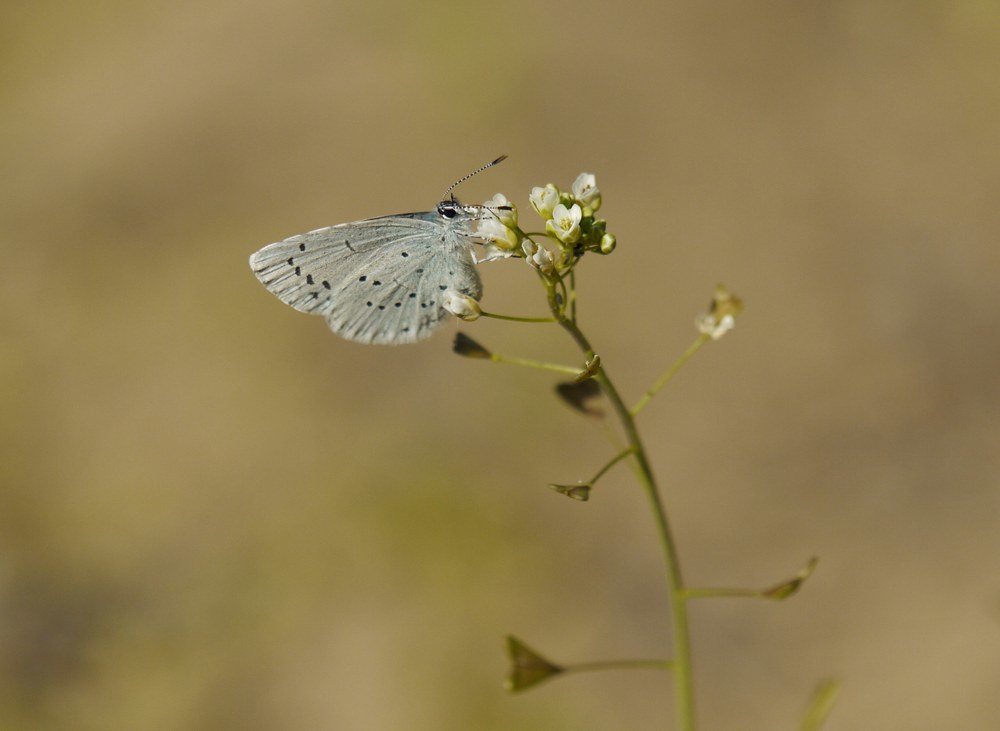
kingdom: Animalia
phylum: Arthropoda
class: Insecta
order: Lepidoptera
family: Lycaenidae
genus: Celastrina
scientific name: Celastrina argiolus
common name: Holly blue
